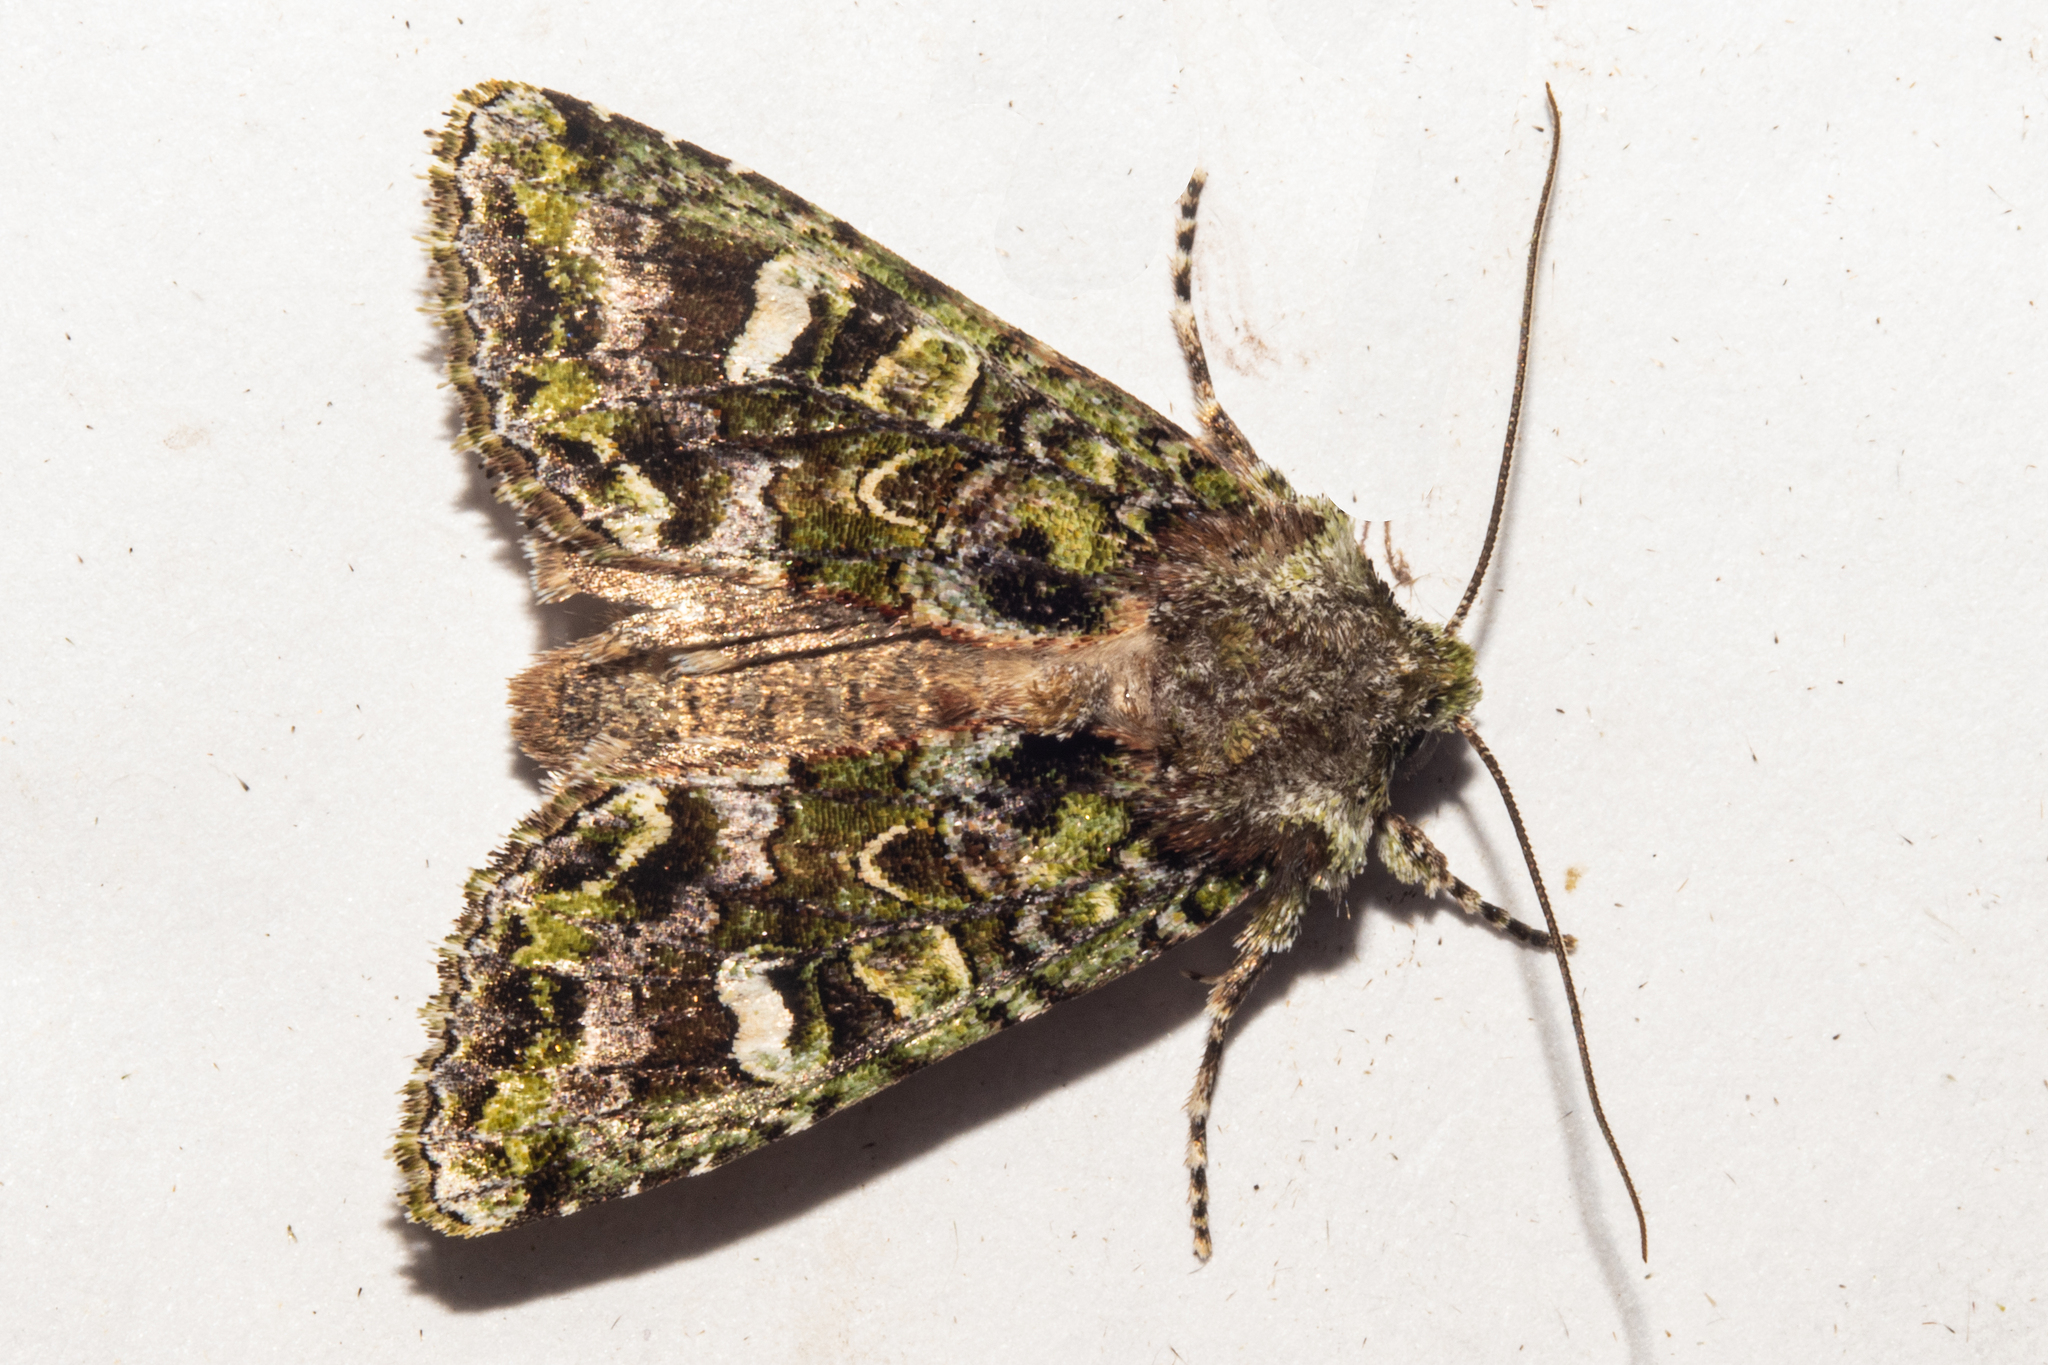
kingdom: Animalia
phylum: Arthropoda
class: Insecta
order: Lepidoptera
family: Noctuidae
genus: Ichneutica
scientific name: Ichneutica
